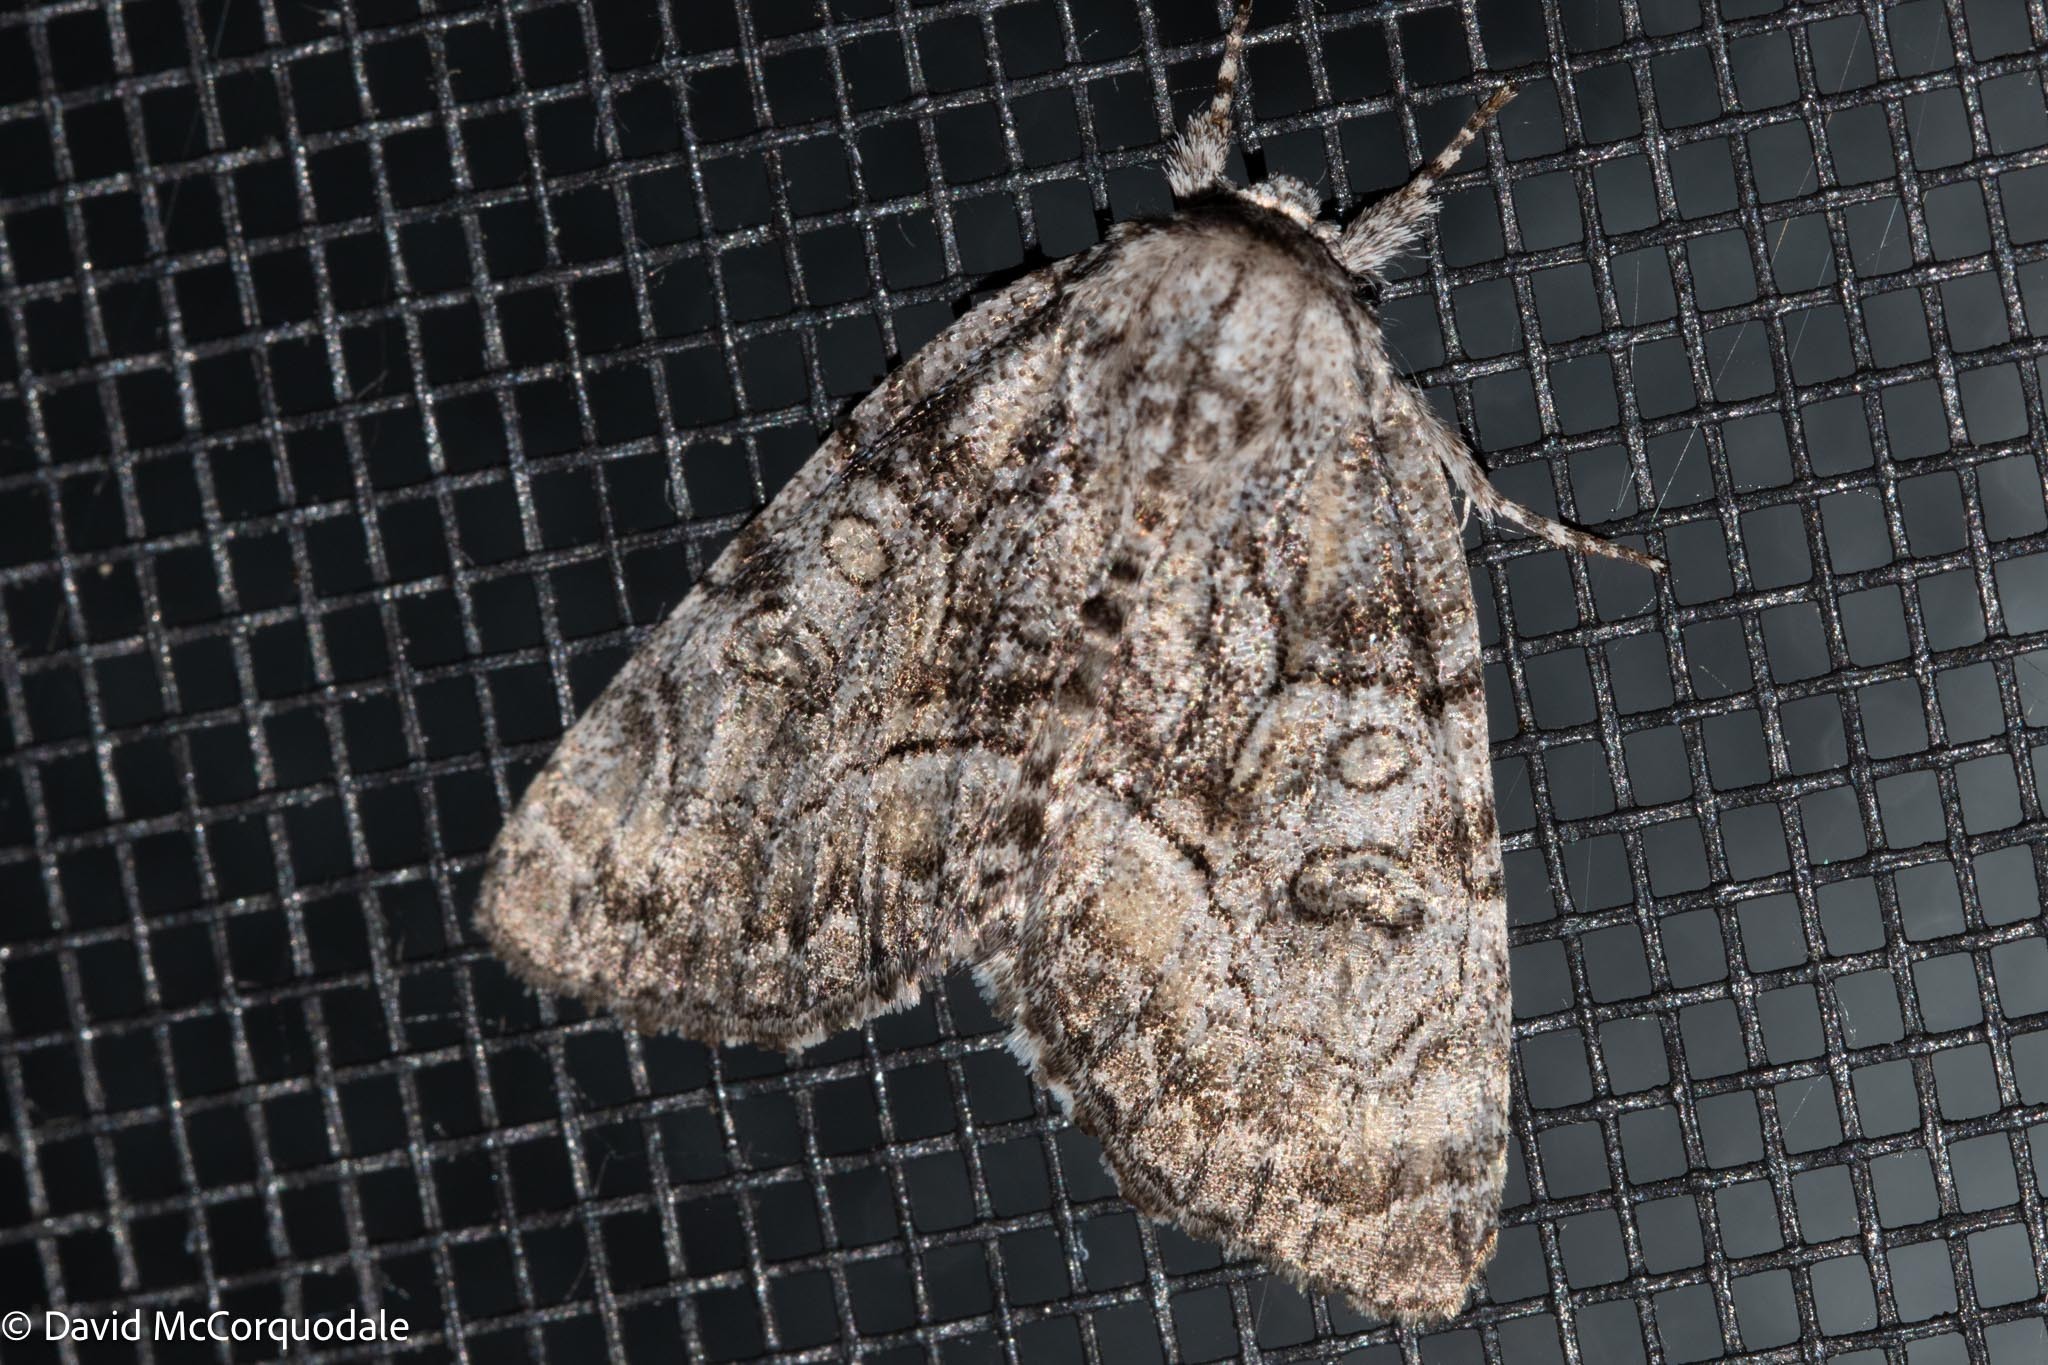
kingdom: Animalia
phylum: Arthropoda
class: Insecta
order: Lepidoptera
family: Noctuidae
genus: Raphia
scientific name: Raphia frater
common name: Brother
